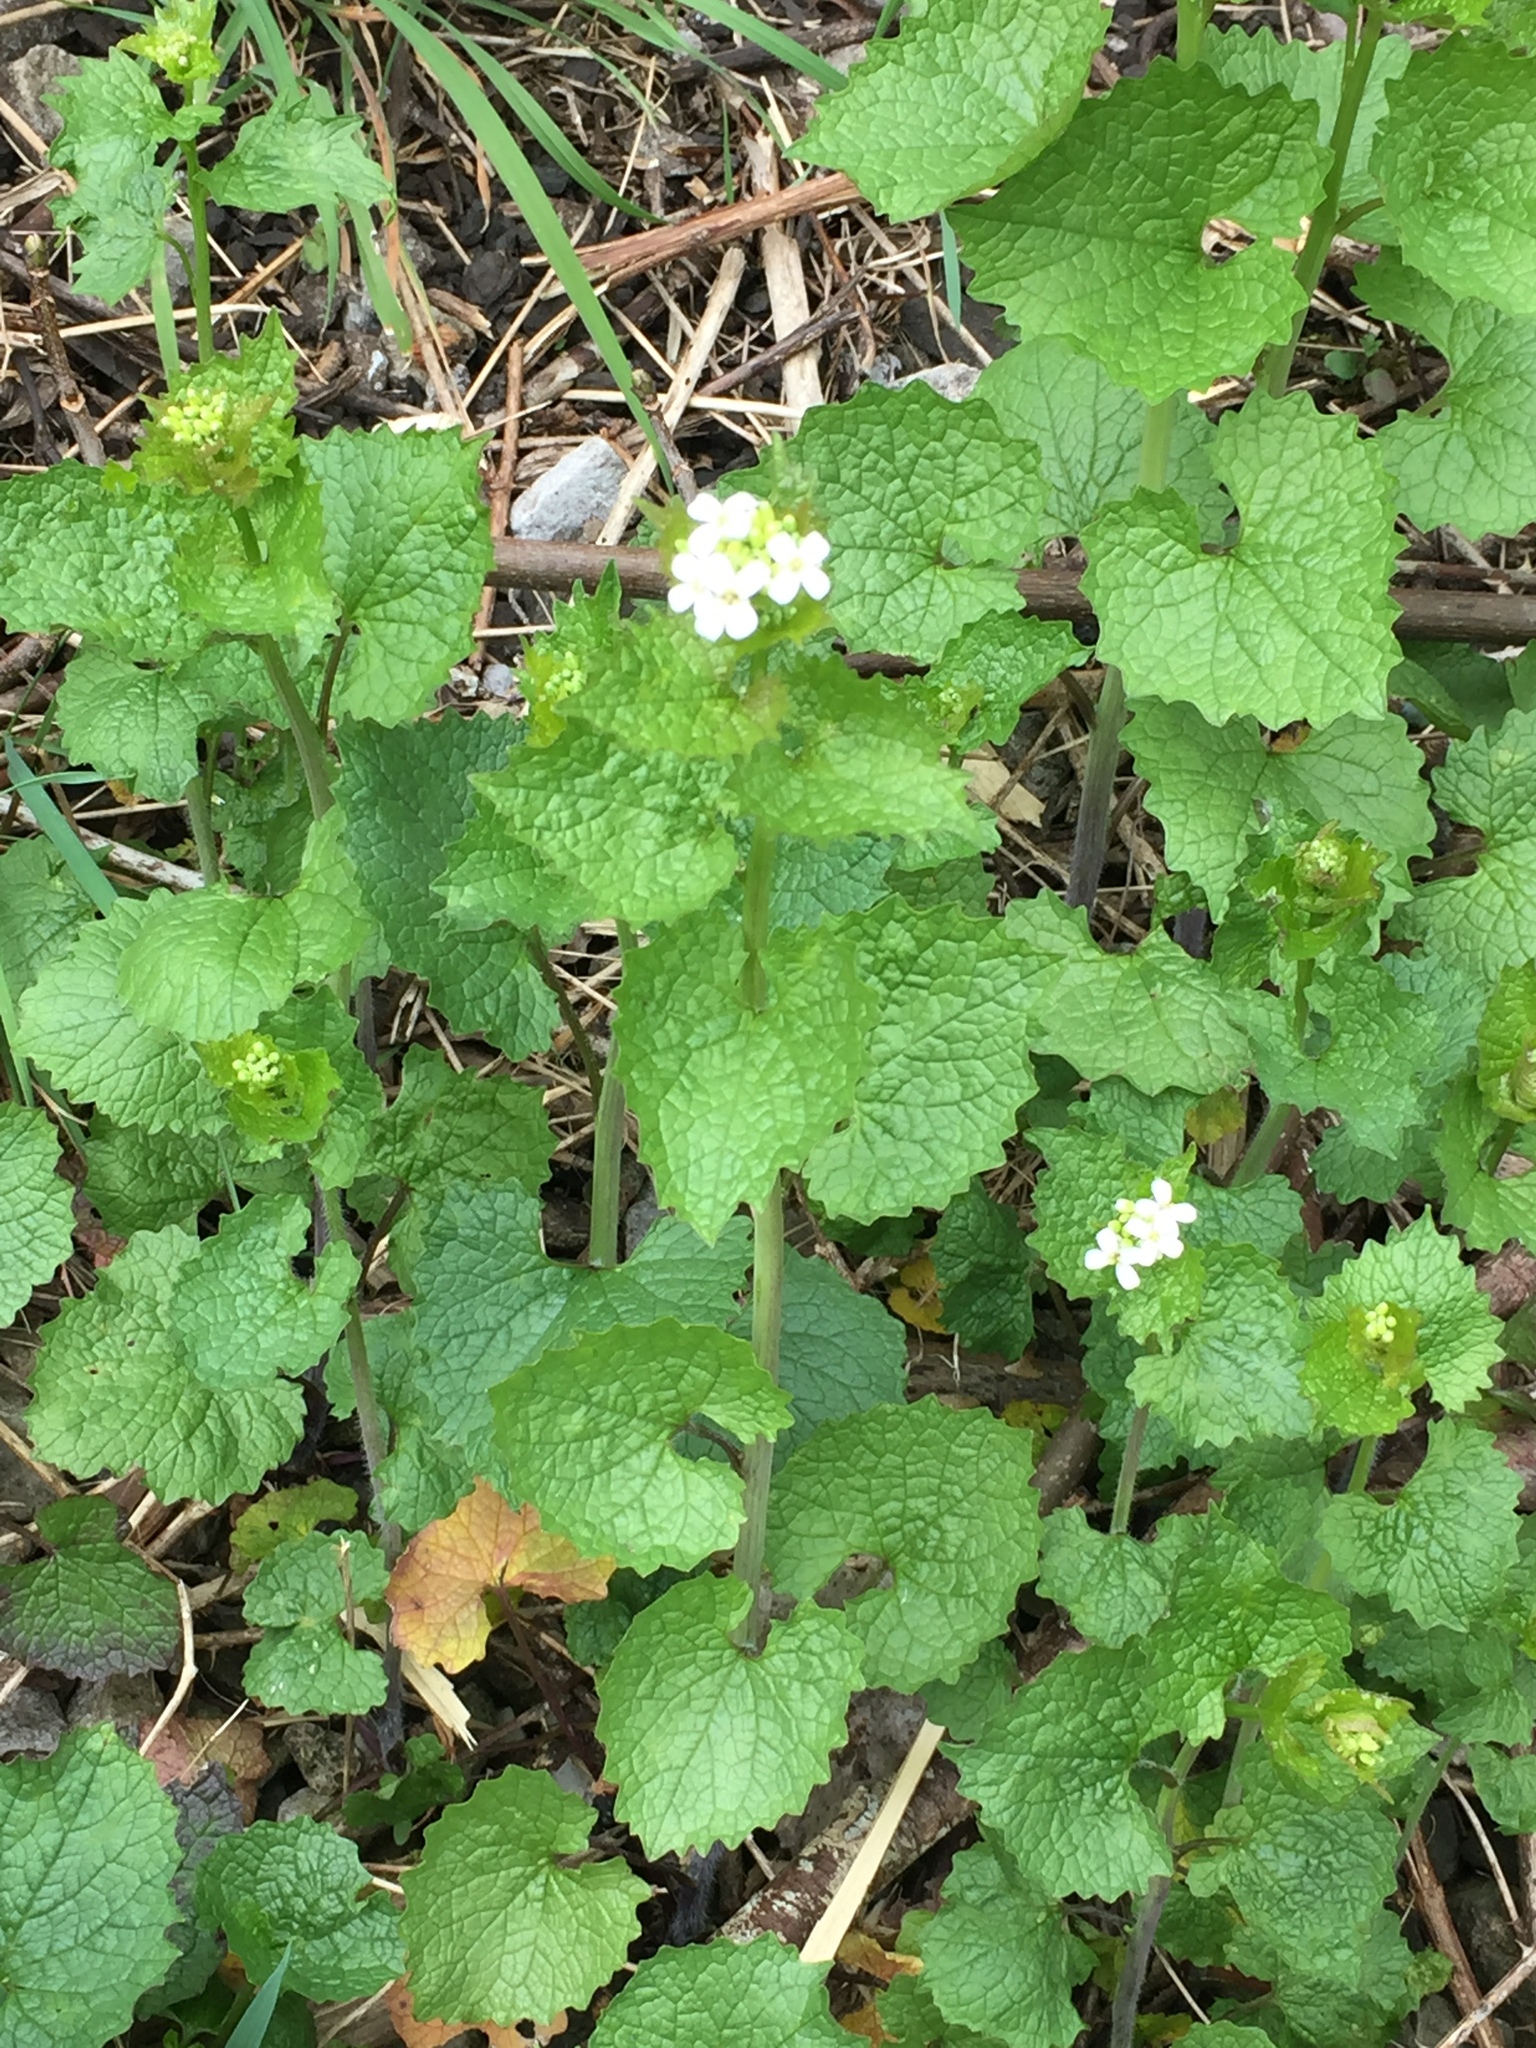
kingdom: Plantae
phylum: Tracheophyta
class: Magnoliopsida
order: Brassicales
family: Brassicaceae
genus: Alliaria
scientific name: Alliaria petiolata
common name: Garlic mustard
